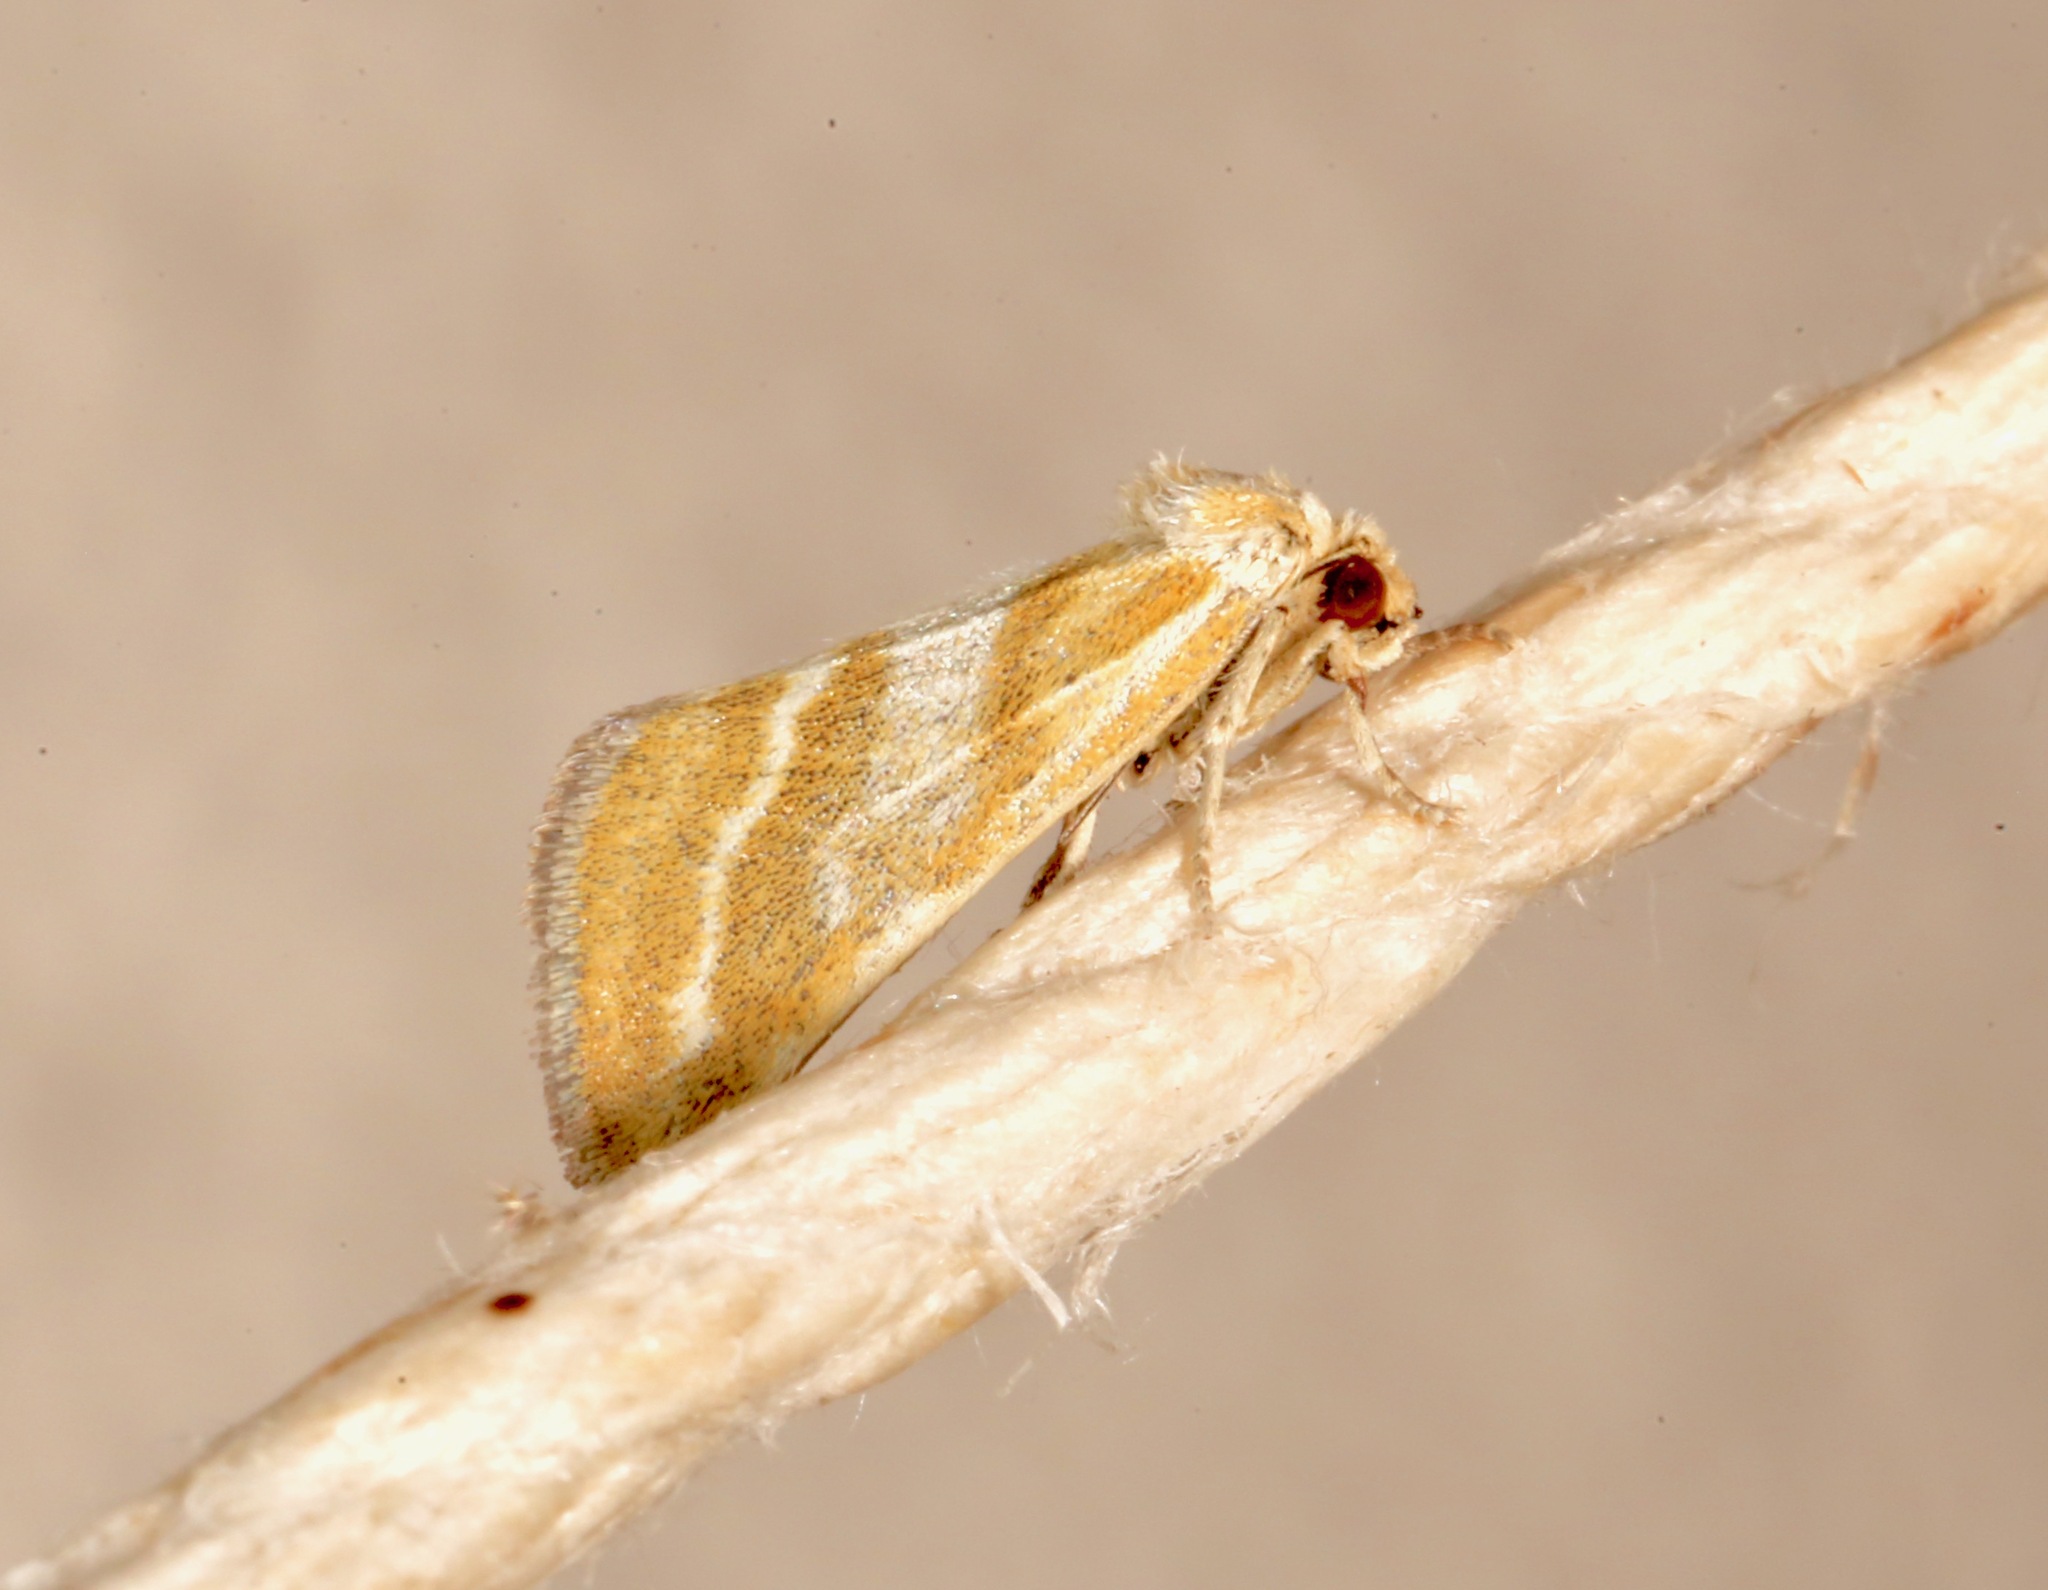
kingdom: Animalia
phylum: Arthropoda
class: Insecta
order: Lepidoptera
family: Noctuidae
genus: Lineostriastiria
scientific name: Lineostriastiria hutsoni
